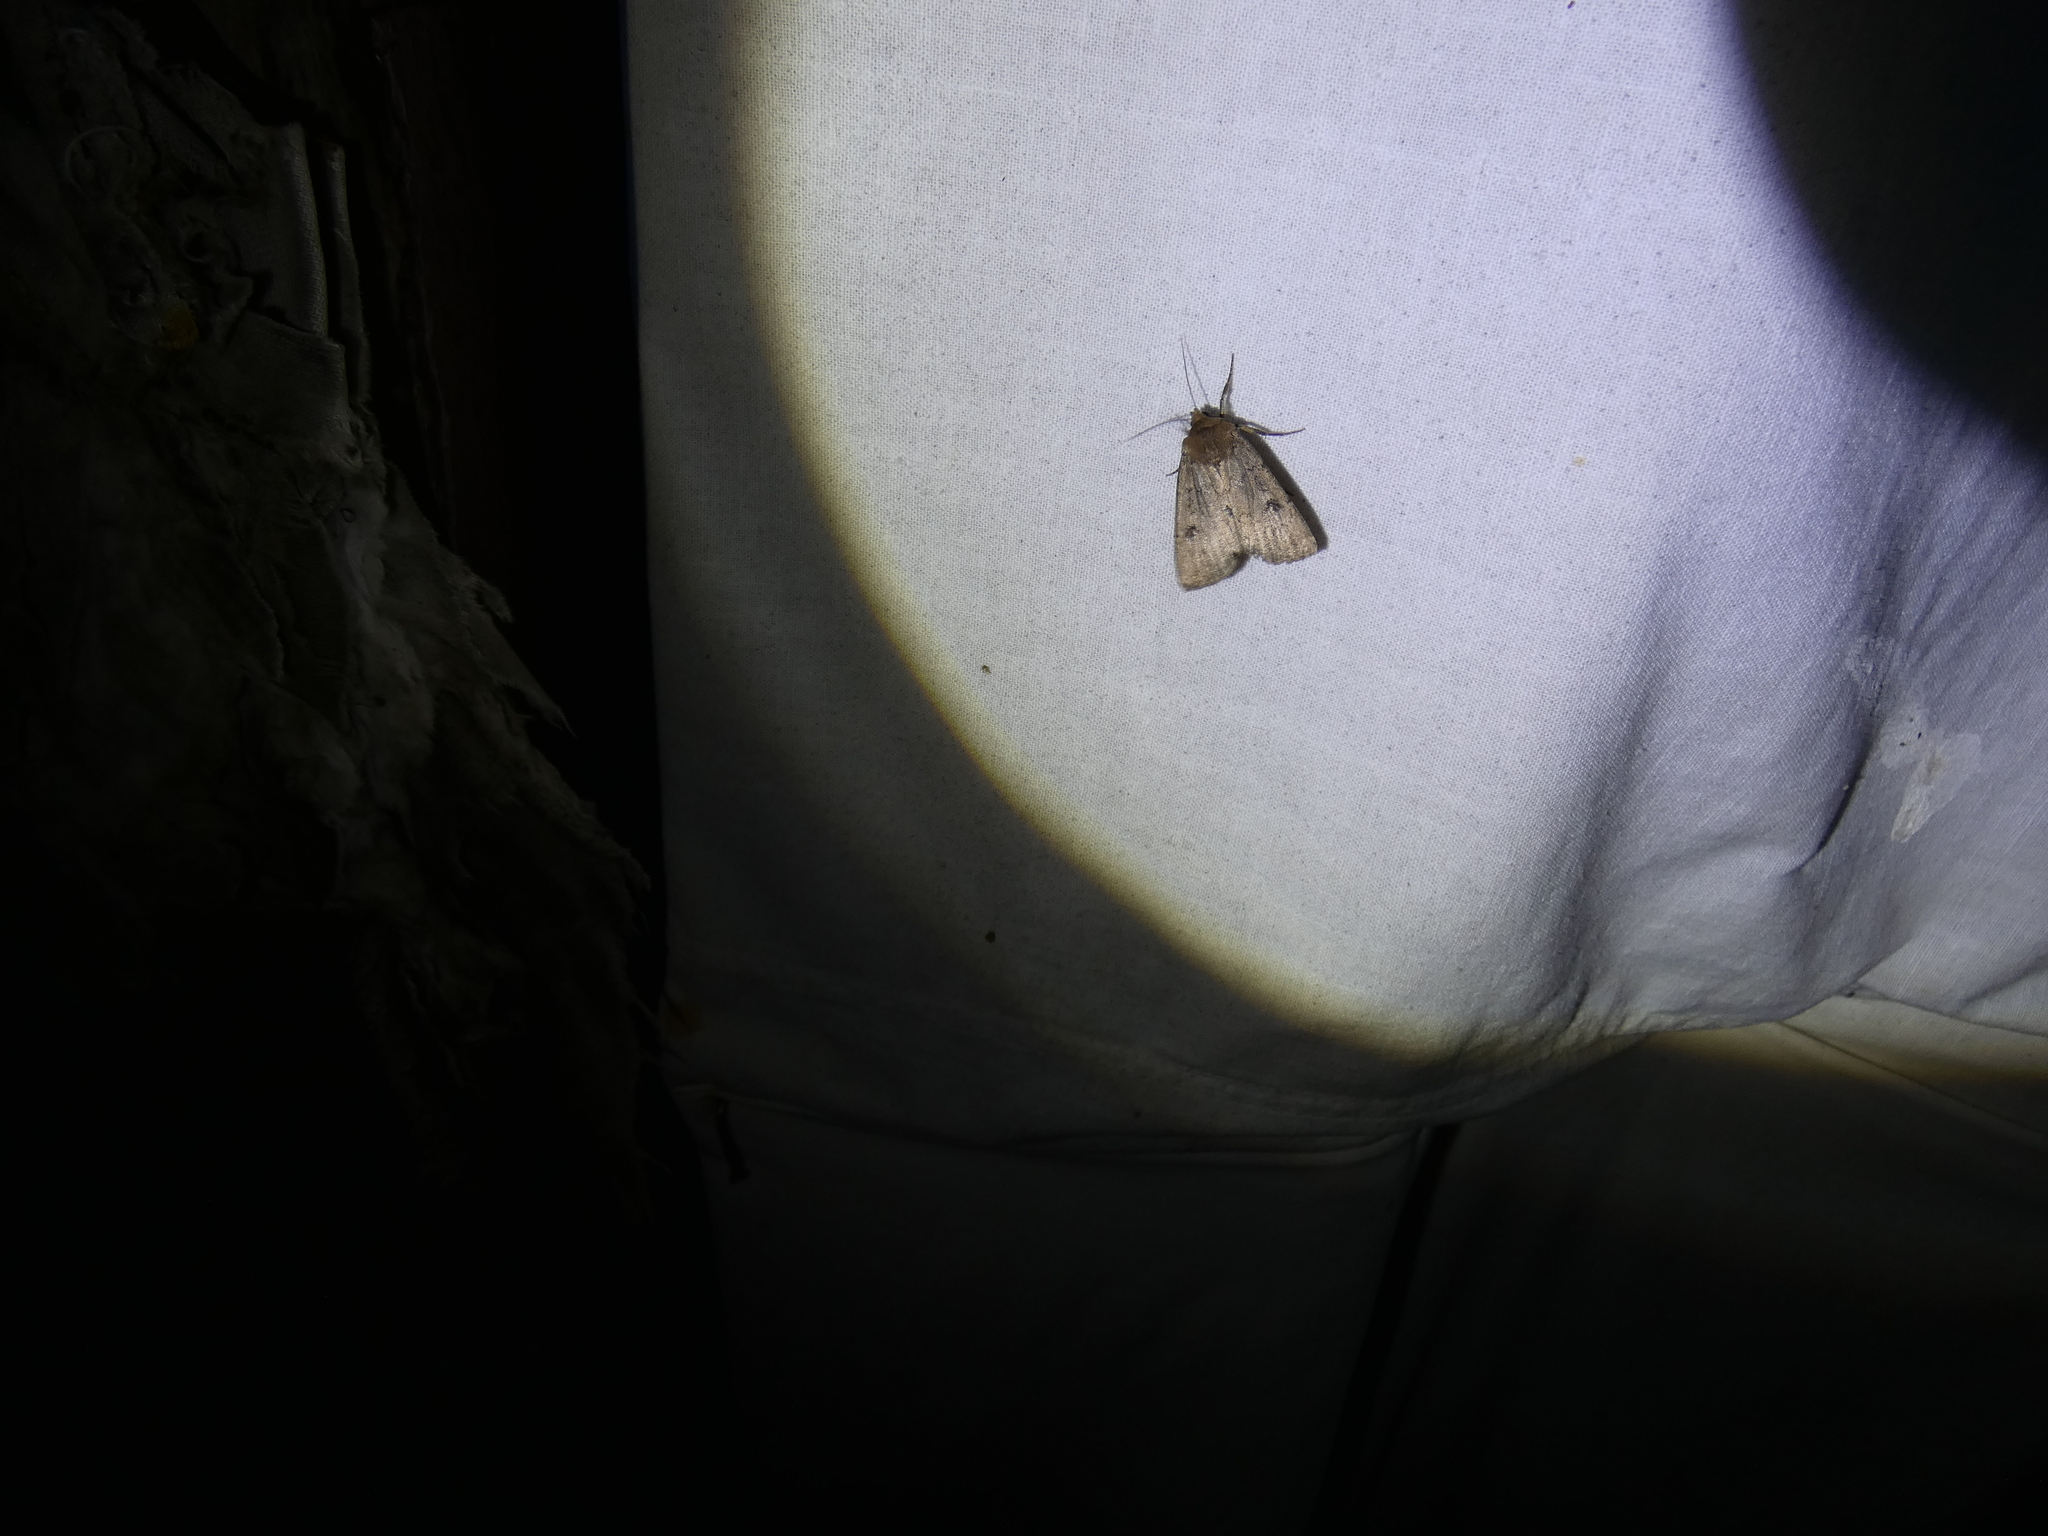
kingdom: Animalia
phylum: Arthropoda
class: Insecta
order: Lepidoptera
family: Noctuidae
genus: Graphiphora
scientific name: Graphiphora augur
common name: Double dart
